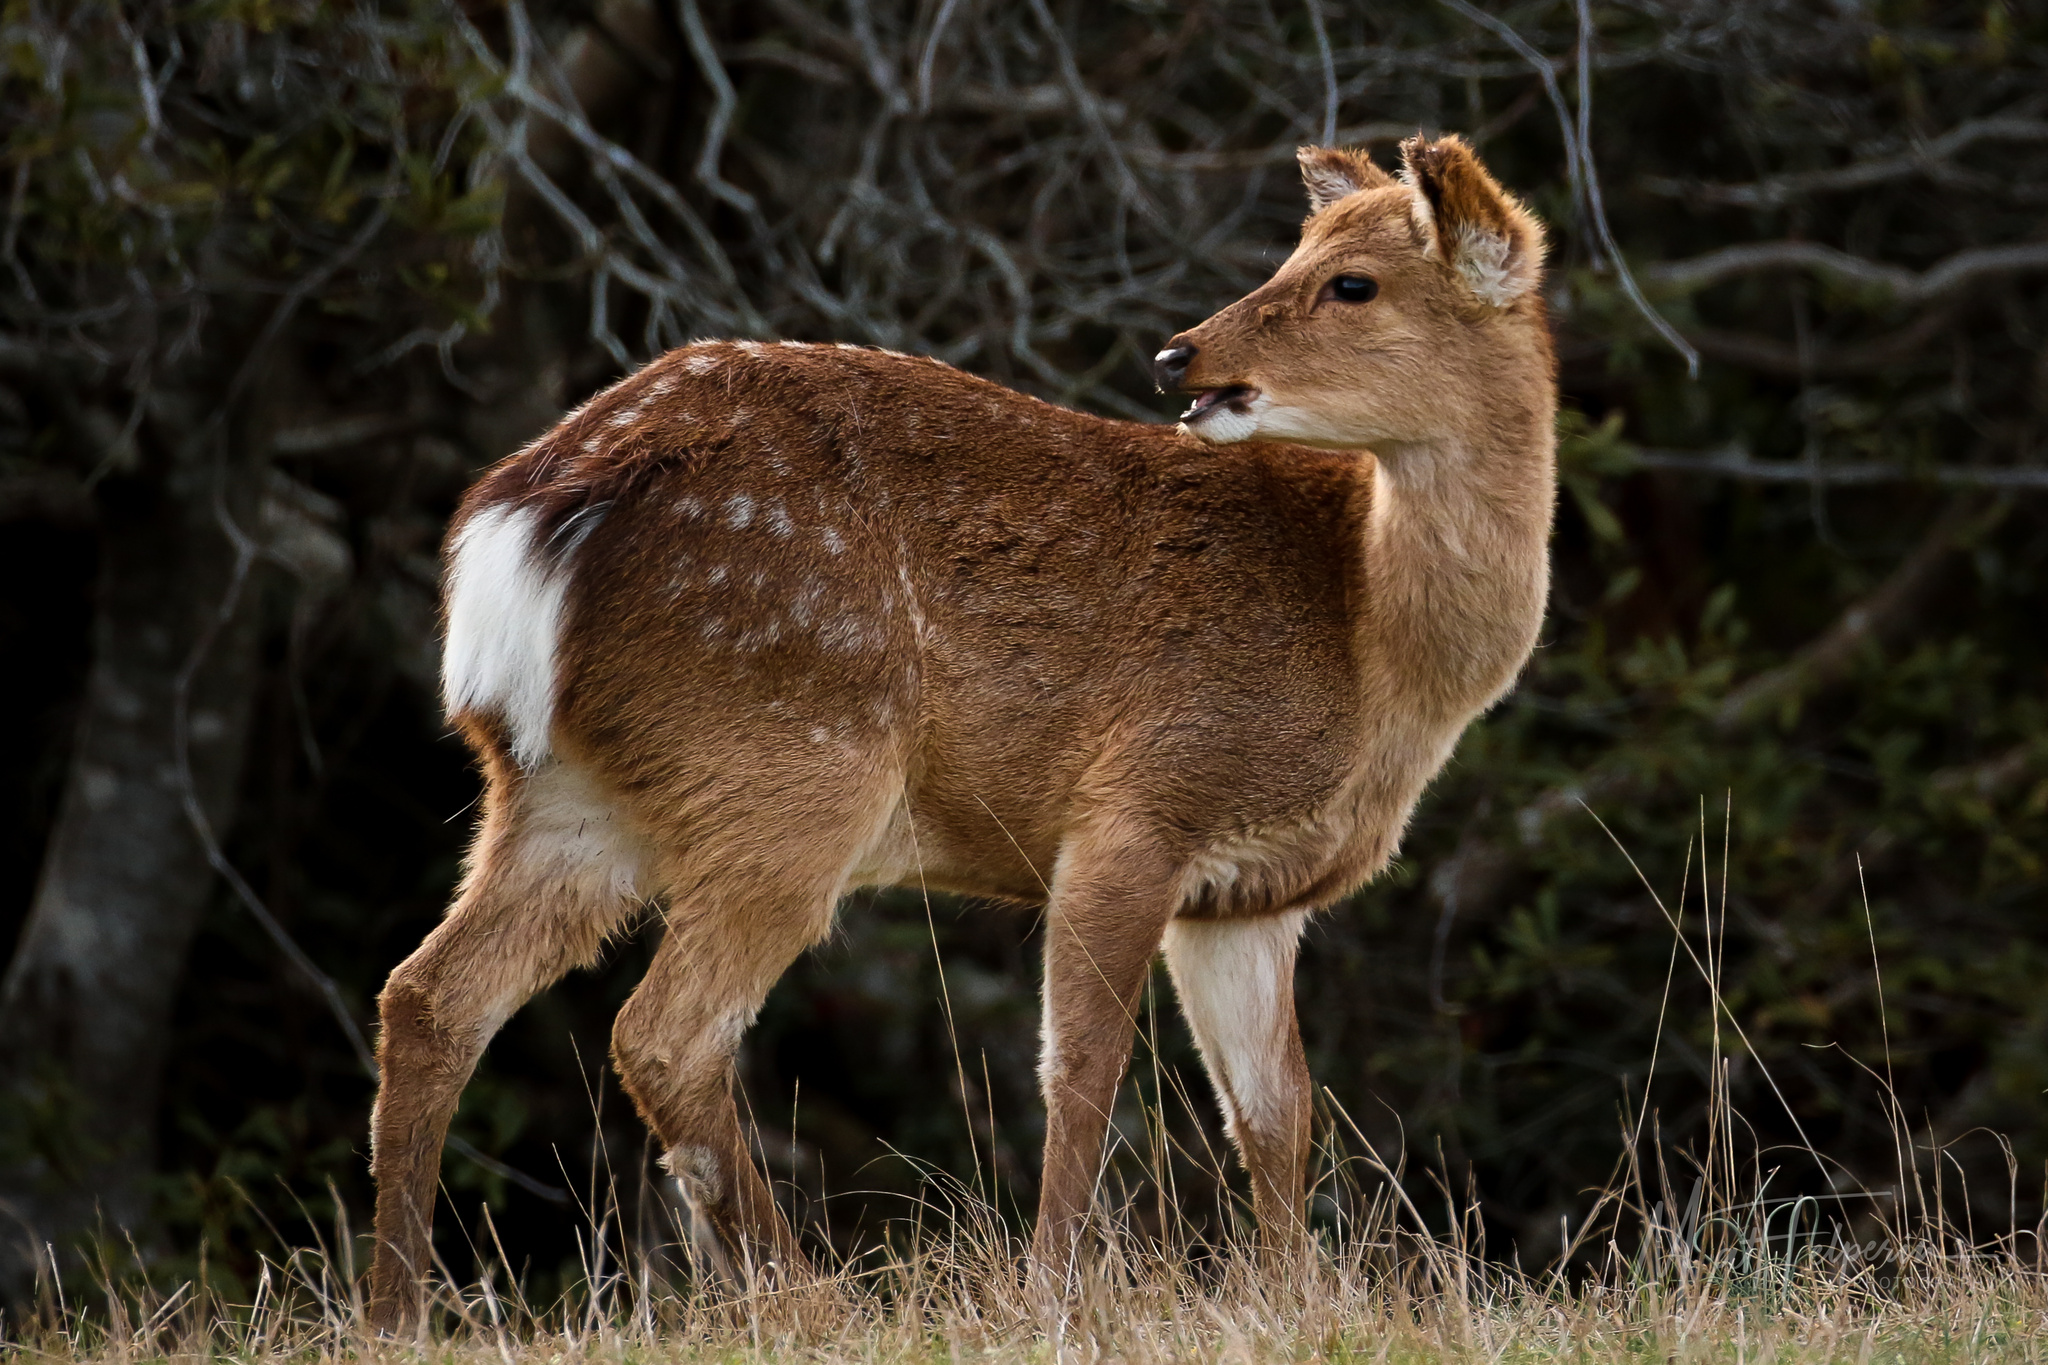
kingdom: Animalia
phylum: Chordata
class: Mammalia
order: Artiodactyla
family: Cervidae
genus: Cervus
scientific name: Cervus nippon
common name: Sika deer
